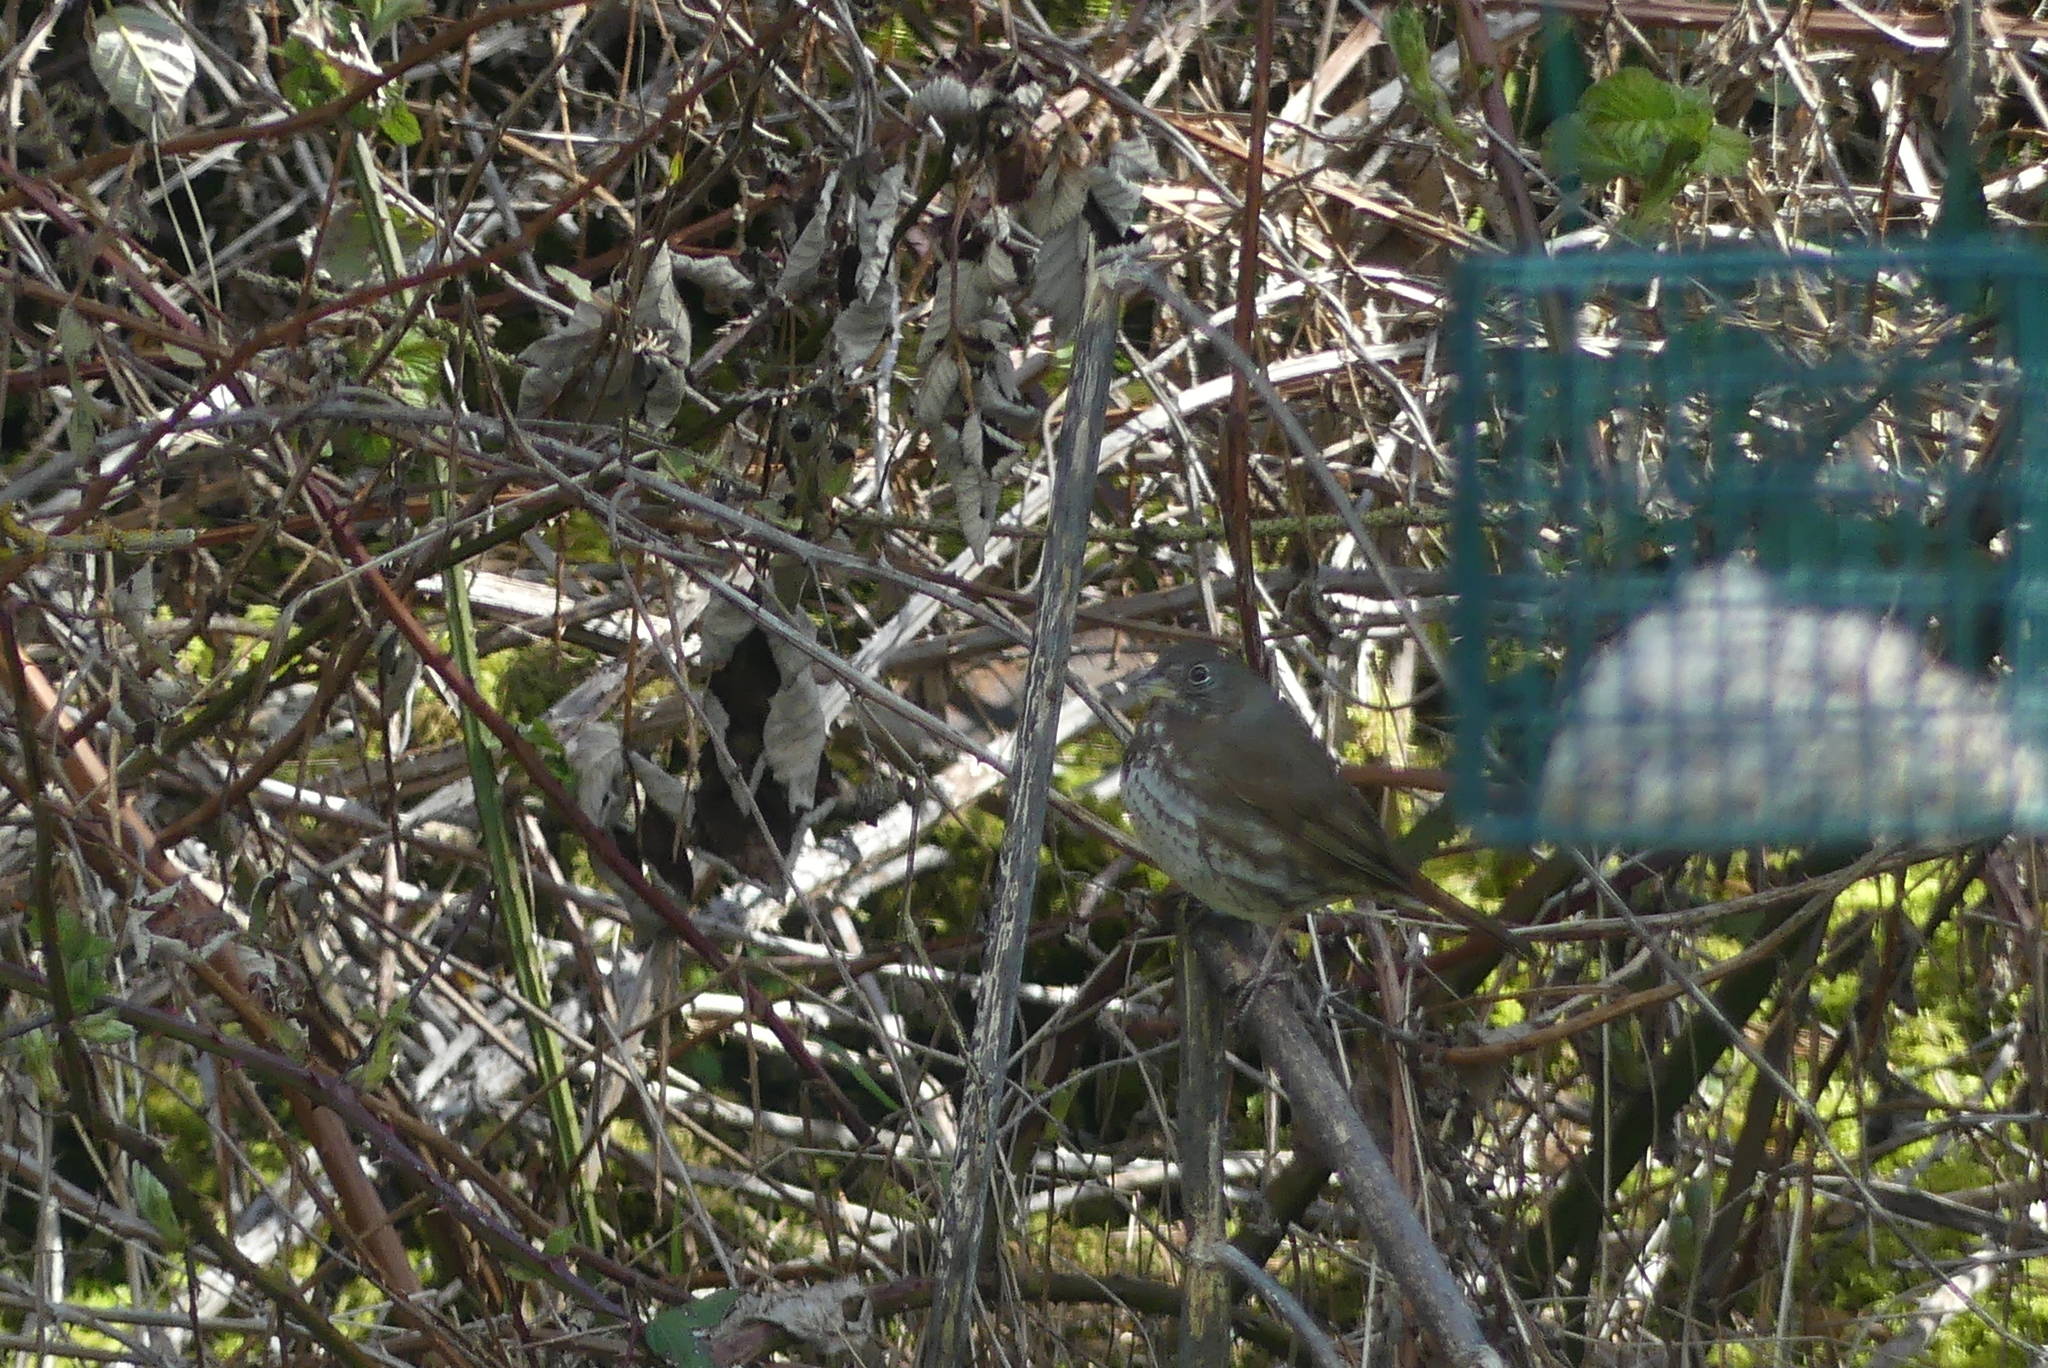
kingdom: Animalia
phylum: Chordata
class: Aves
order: Passeriformes
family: Passerellidae
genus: Passerella
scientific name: Passerella iliaca
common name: Fox sparrow
